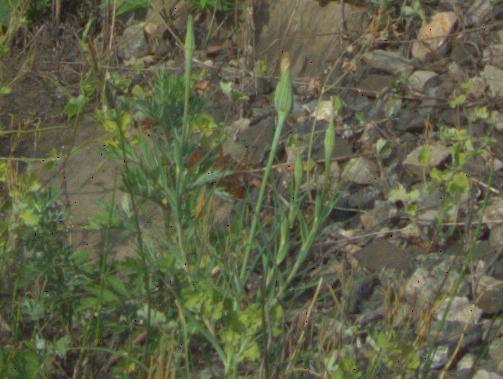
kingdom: Plantae
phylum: Tracheophyta
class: Magnoliopsida
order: Asterales
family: Asteraceae
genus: Tragopogon
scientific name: Tragopogon dubius
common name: Yellow salsify
